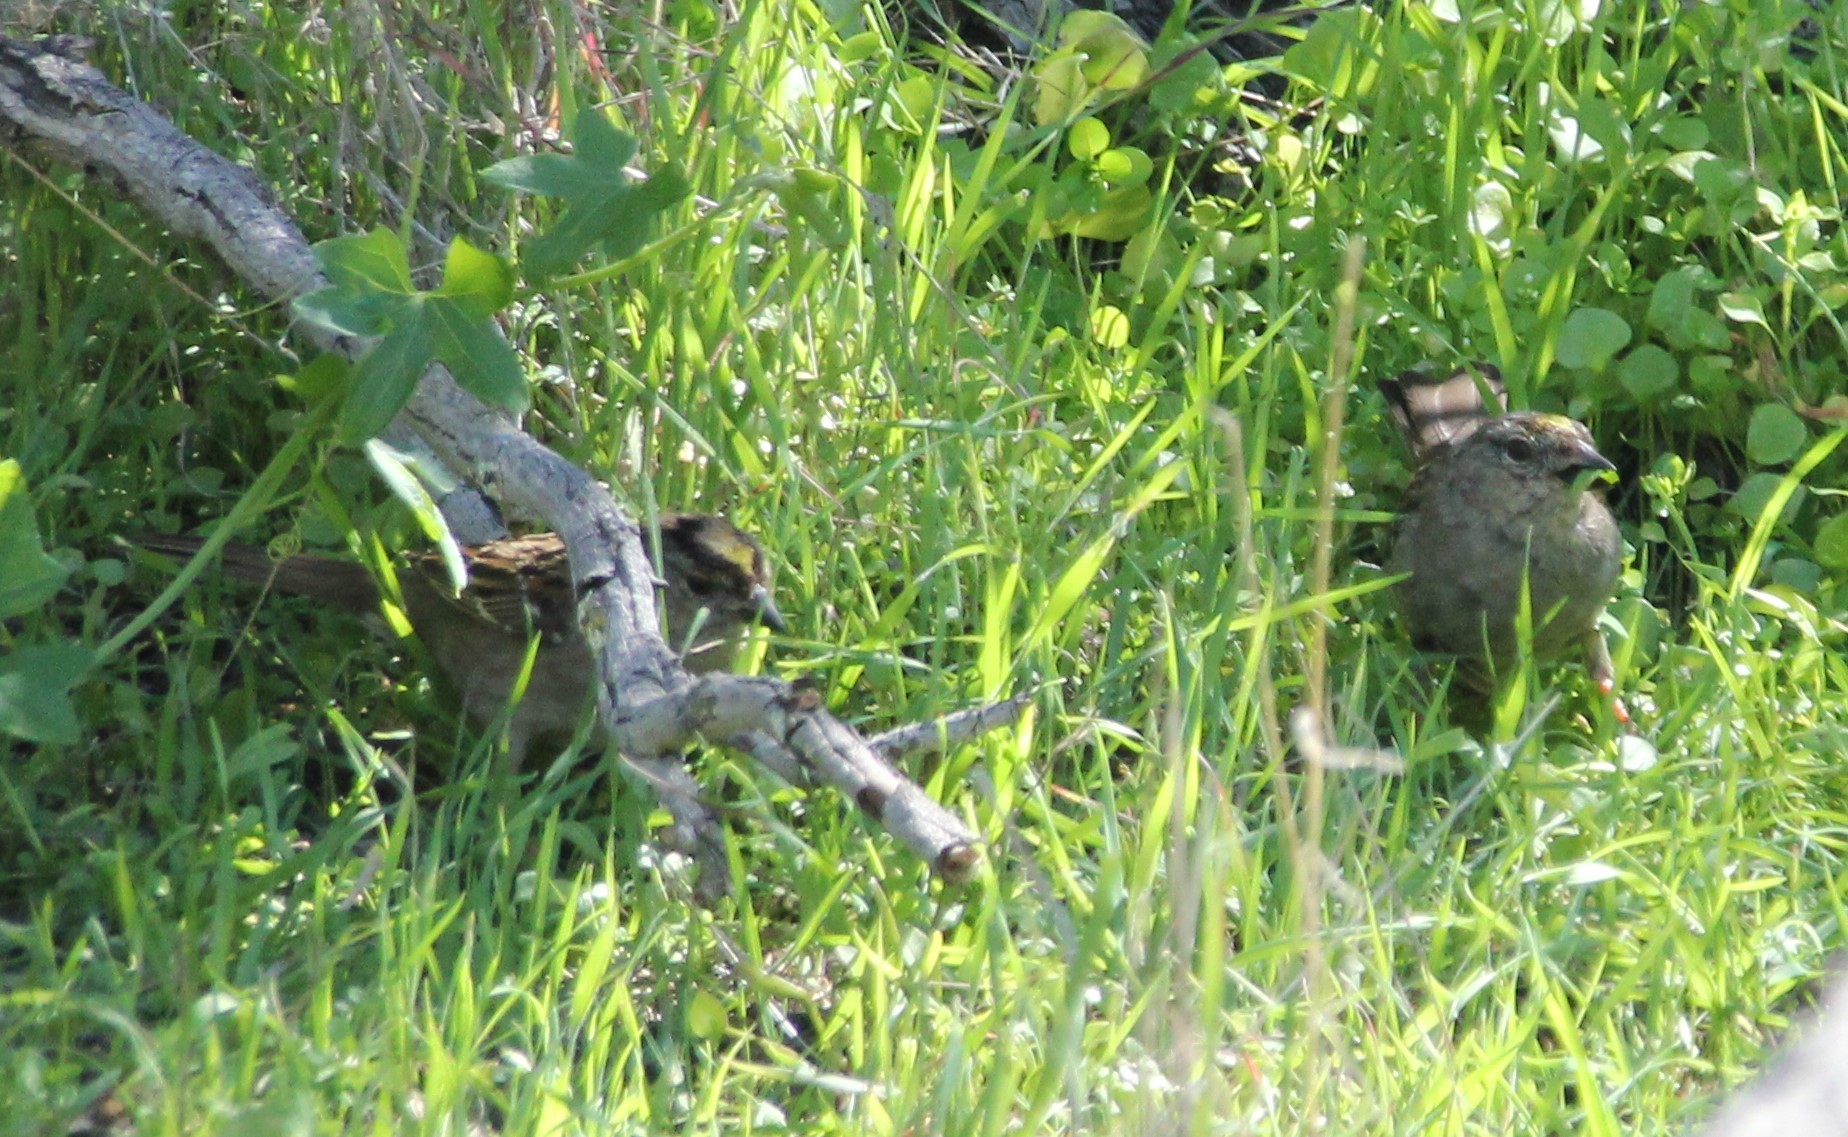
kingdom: Animalia
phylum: Chordata
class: Aves
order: Passeriformes
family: Passerellidae
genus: Zonotrichia
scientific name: Zonotrichia atricapilla
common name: Golden-crowned sparrow
